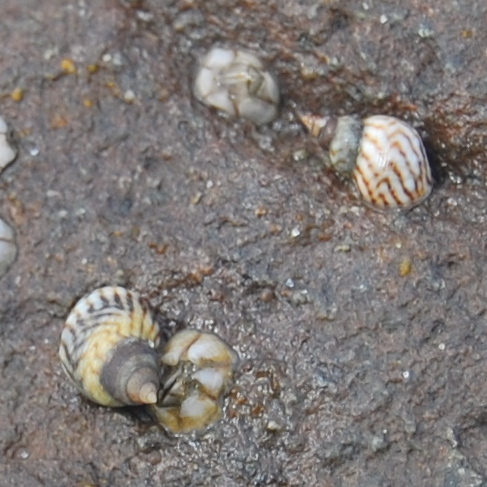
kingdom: Animalia
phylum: Mollusca
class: Gastropoda
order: Littorinimorpha
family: Littorinidae
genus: Echinolittorina
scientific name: Echinolittorina lineolata
